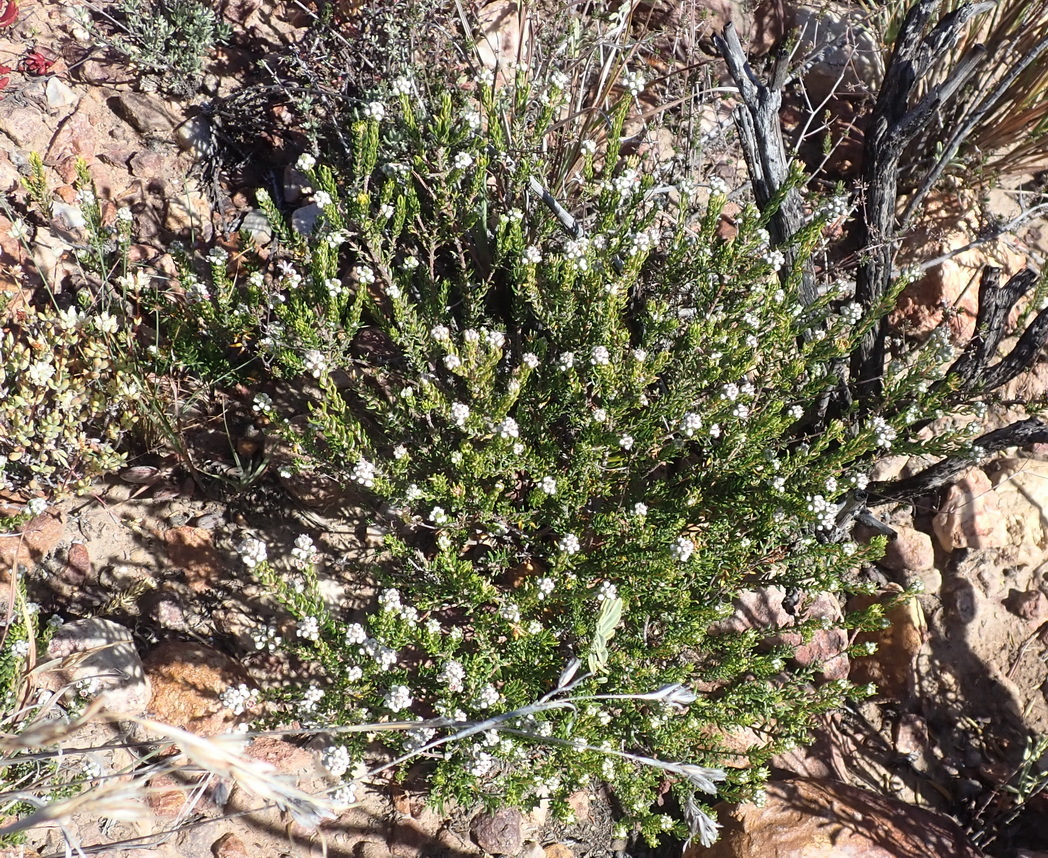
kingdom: Plantae
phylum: Tracheophyta
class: Magnoliopsida
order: Rosales
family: Rhamnaceae
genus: Phylica
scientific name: Phylica purpurea
